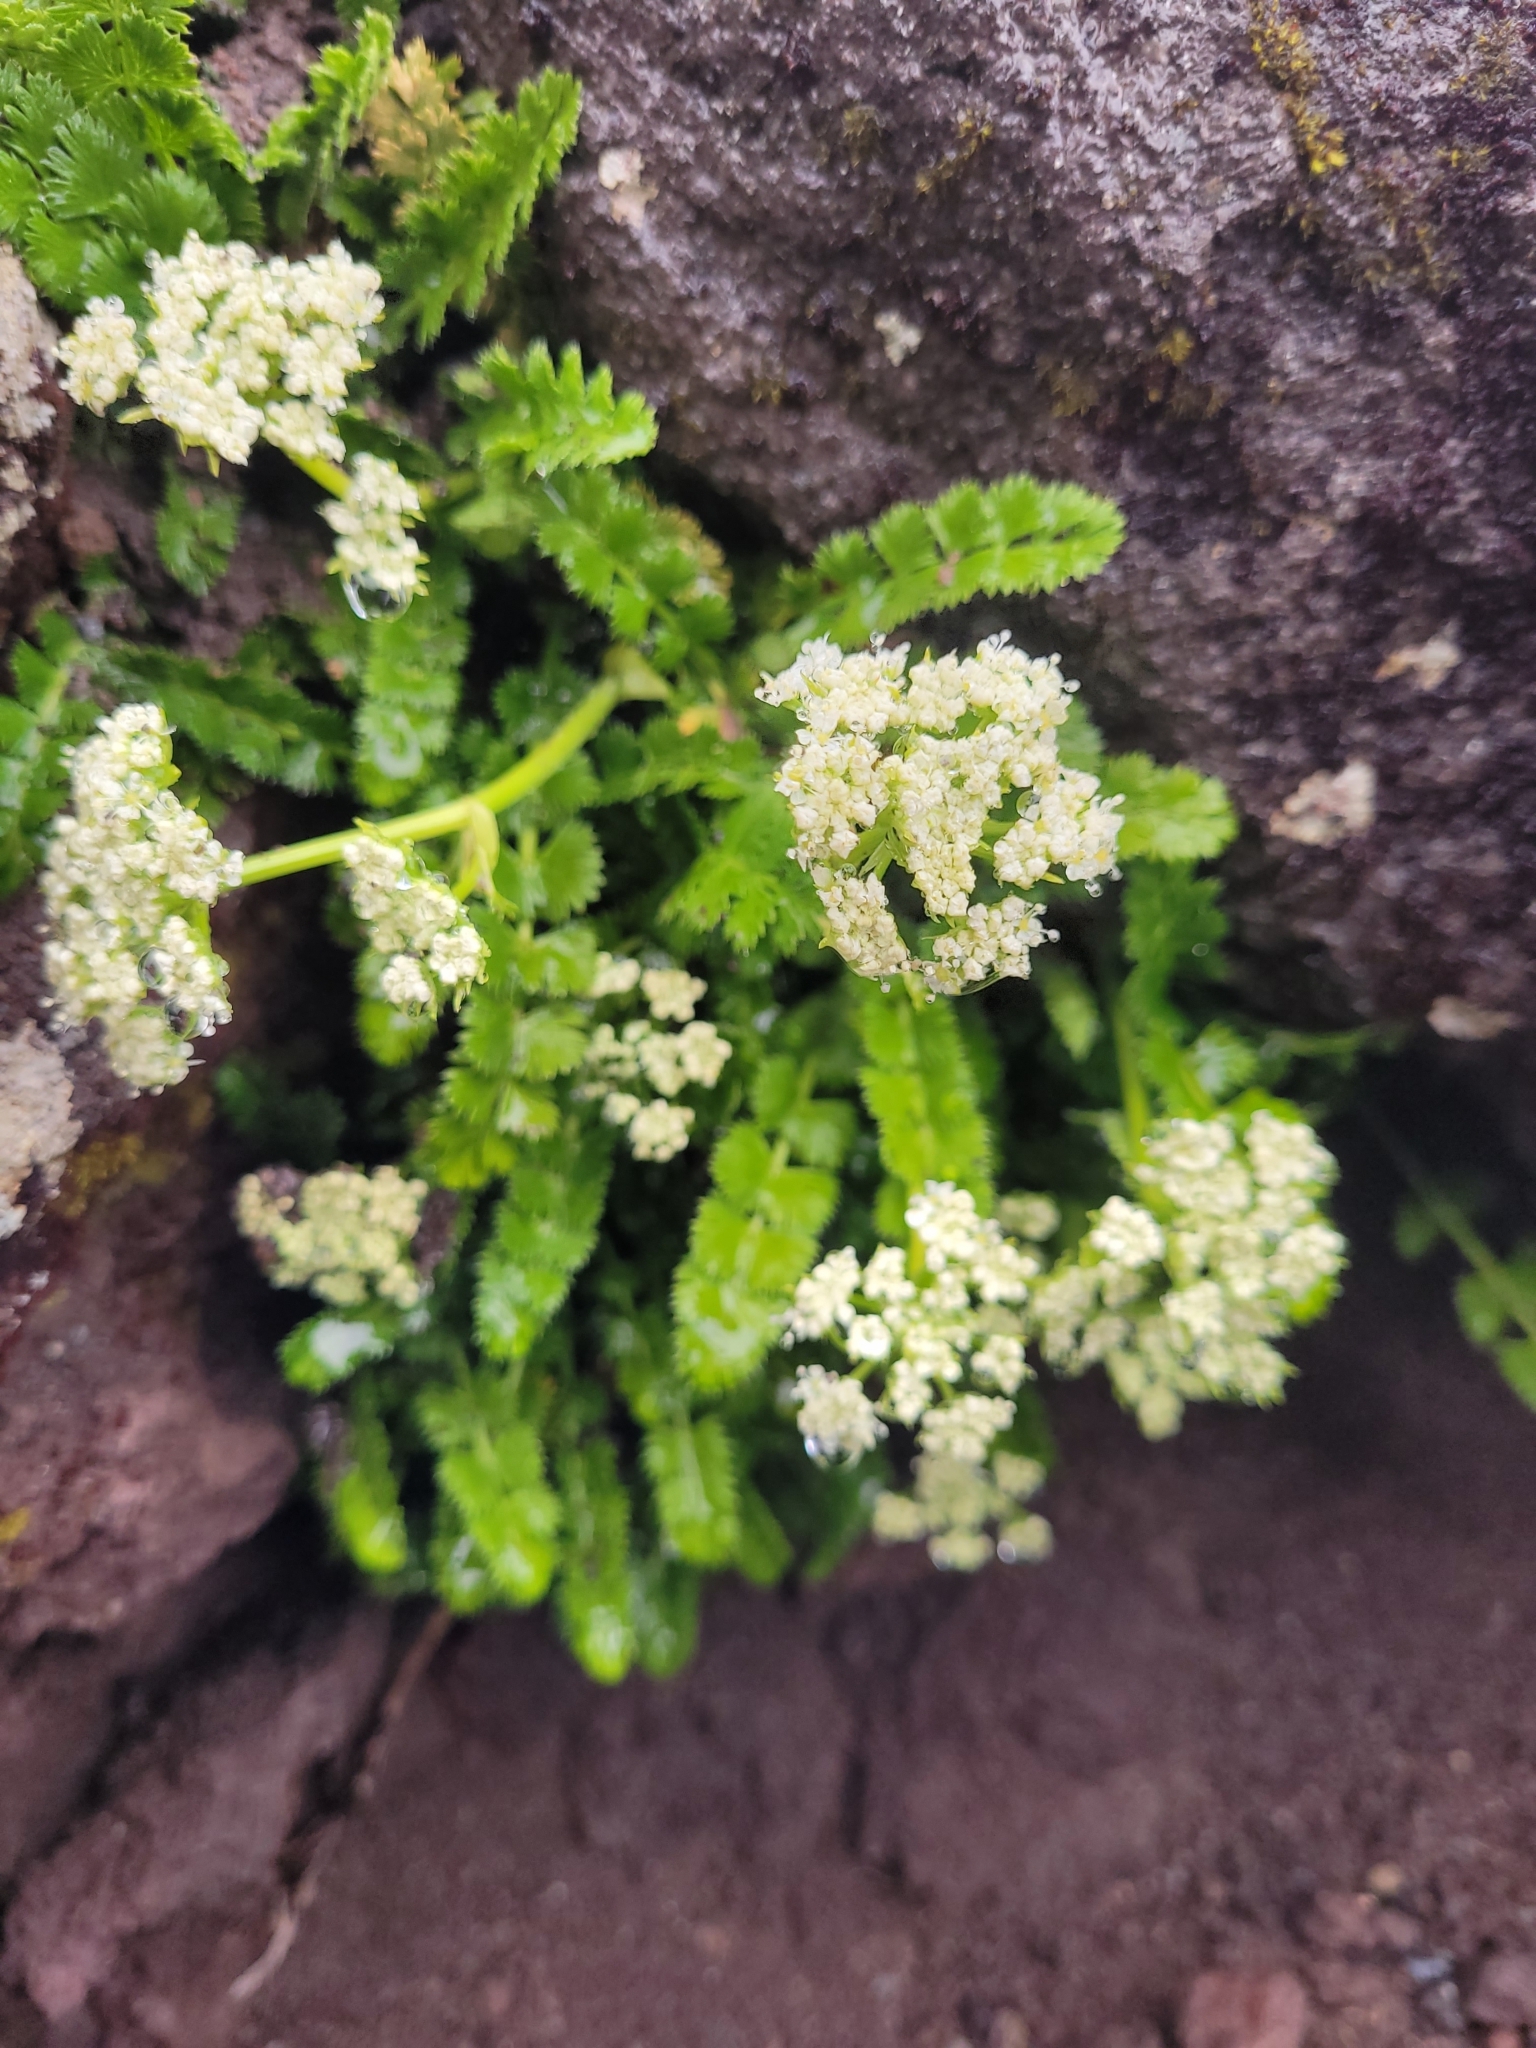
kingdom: Plantae
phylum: Tracheophyta
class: Magnoliopsida
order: Apiales
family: Apiaceae
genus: Anisotome
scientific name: Anisotome aromatica
